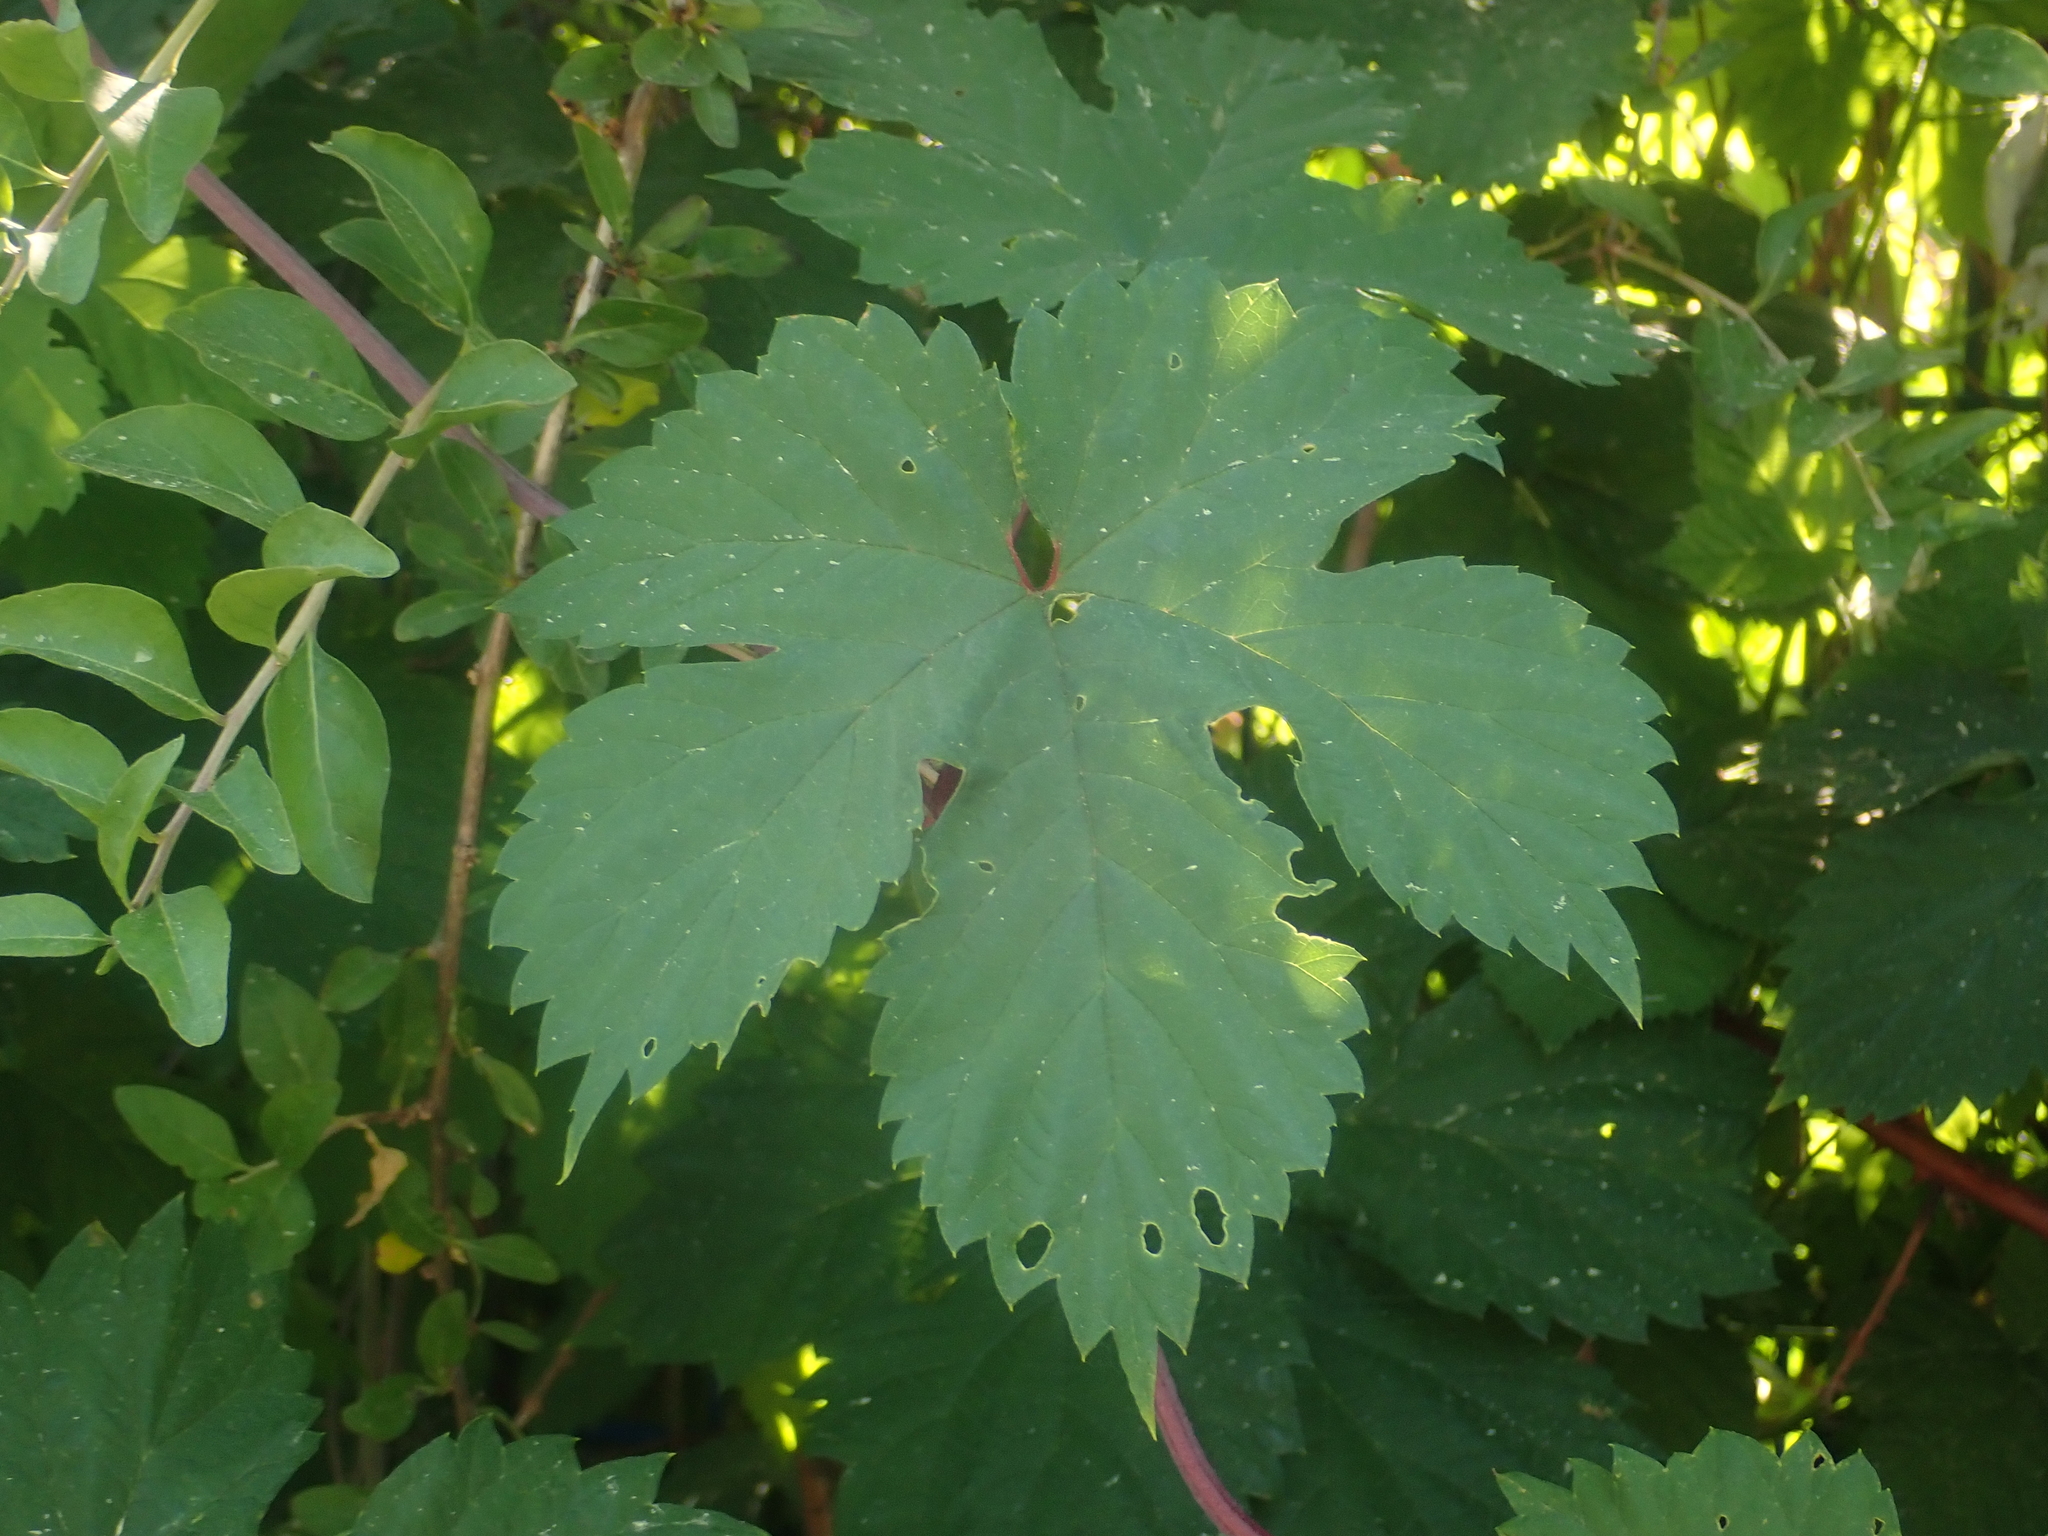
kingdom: Plantae
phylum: Tracheophyta
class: Magnoliopsida
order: Rosales
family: Cannabaceae
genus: Humulus
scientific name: Humulus lupulus
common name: Hop
